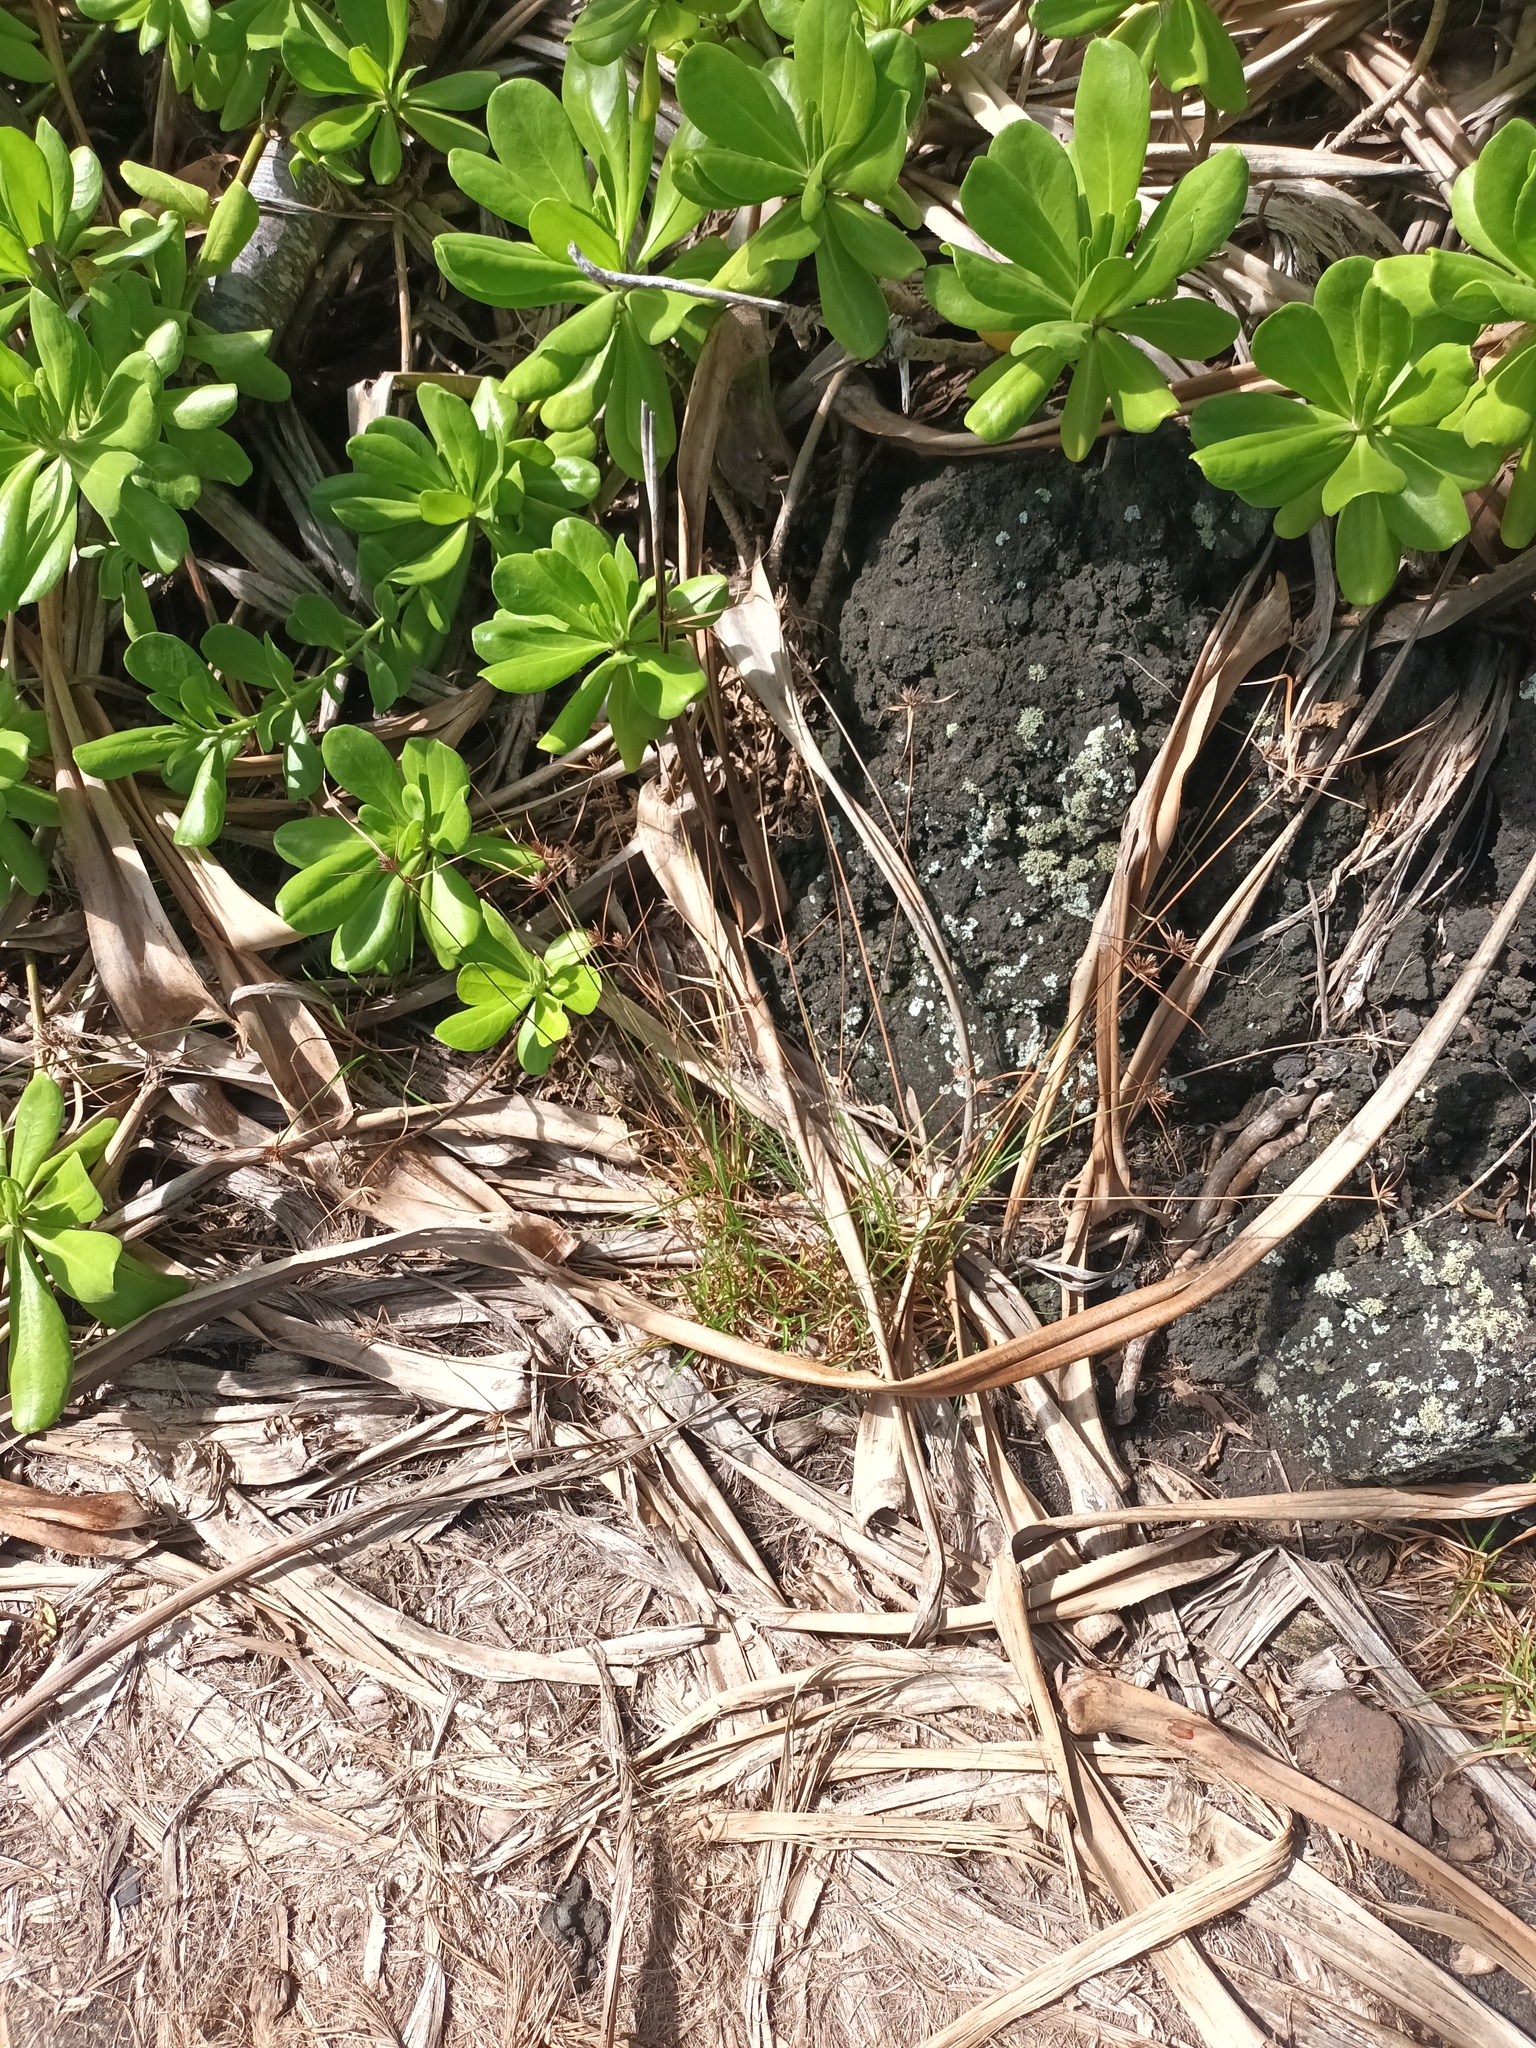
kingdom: Plantae
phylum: Tracheophyta
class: Liliopsida
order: Poales
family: Cyperaceae
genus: Cyperus
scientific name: Cyperus polystachyos
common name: Bunchy flat sedge
